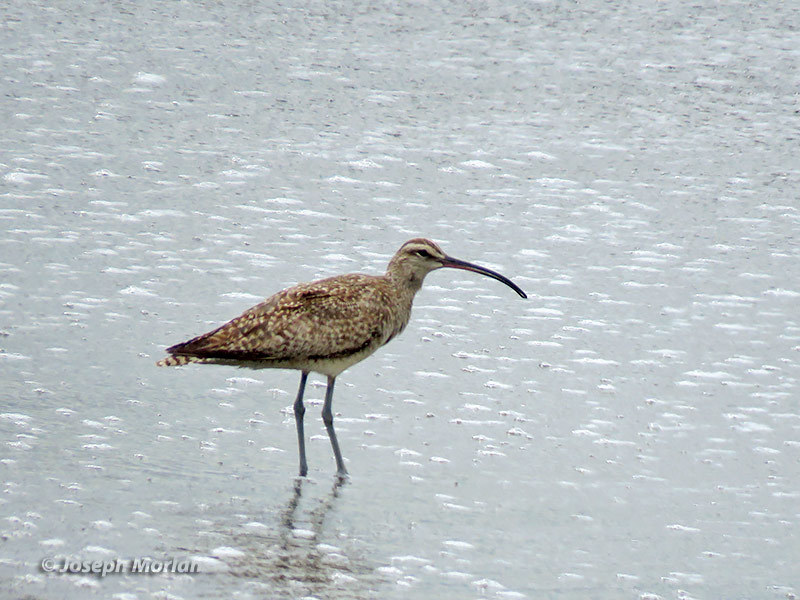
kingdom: Animalia
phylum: Chordata
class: Aves
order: Charadriiformes
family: Scolopacidae
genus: Numenius
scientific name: Numenius phaeopus
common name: Whimbrel
